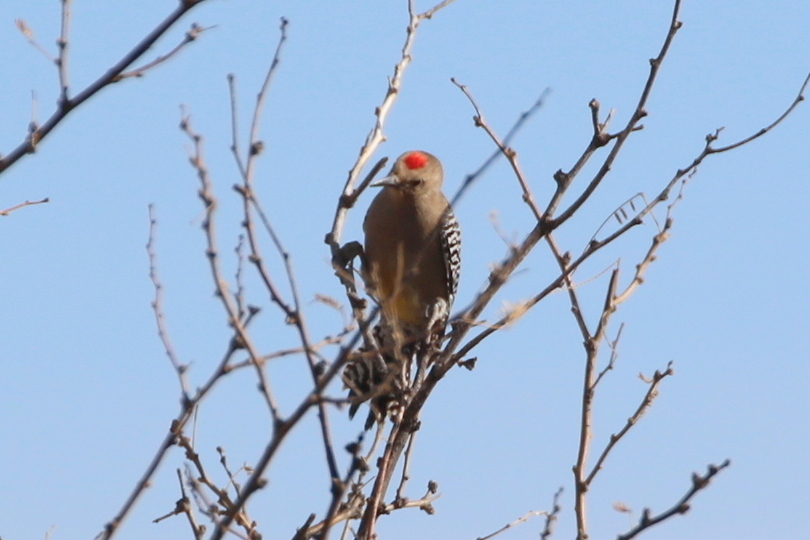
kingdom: Animalia
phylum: Chordata
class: Aves
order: Piciformes
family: Picidae
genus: Melanerpes
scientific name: Melanerpes uropygialis
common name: Gila woodpecker
